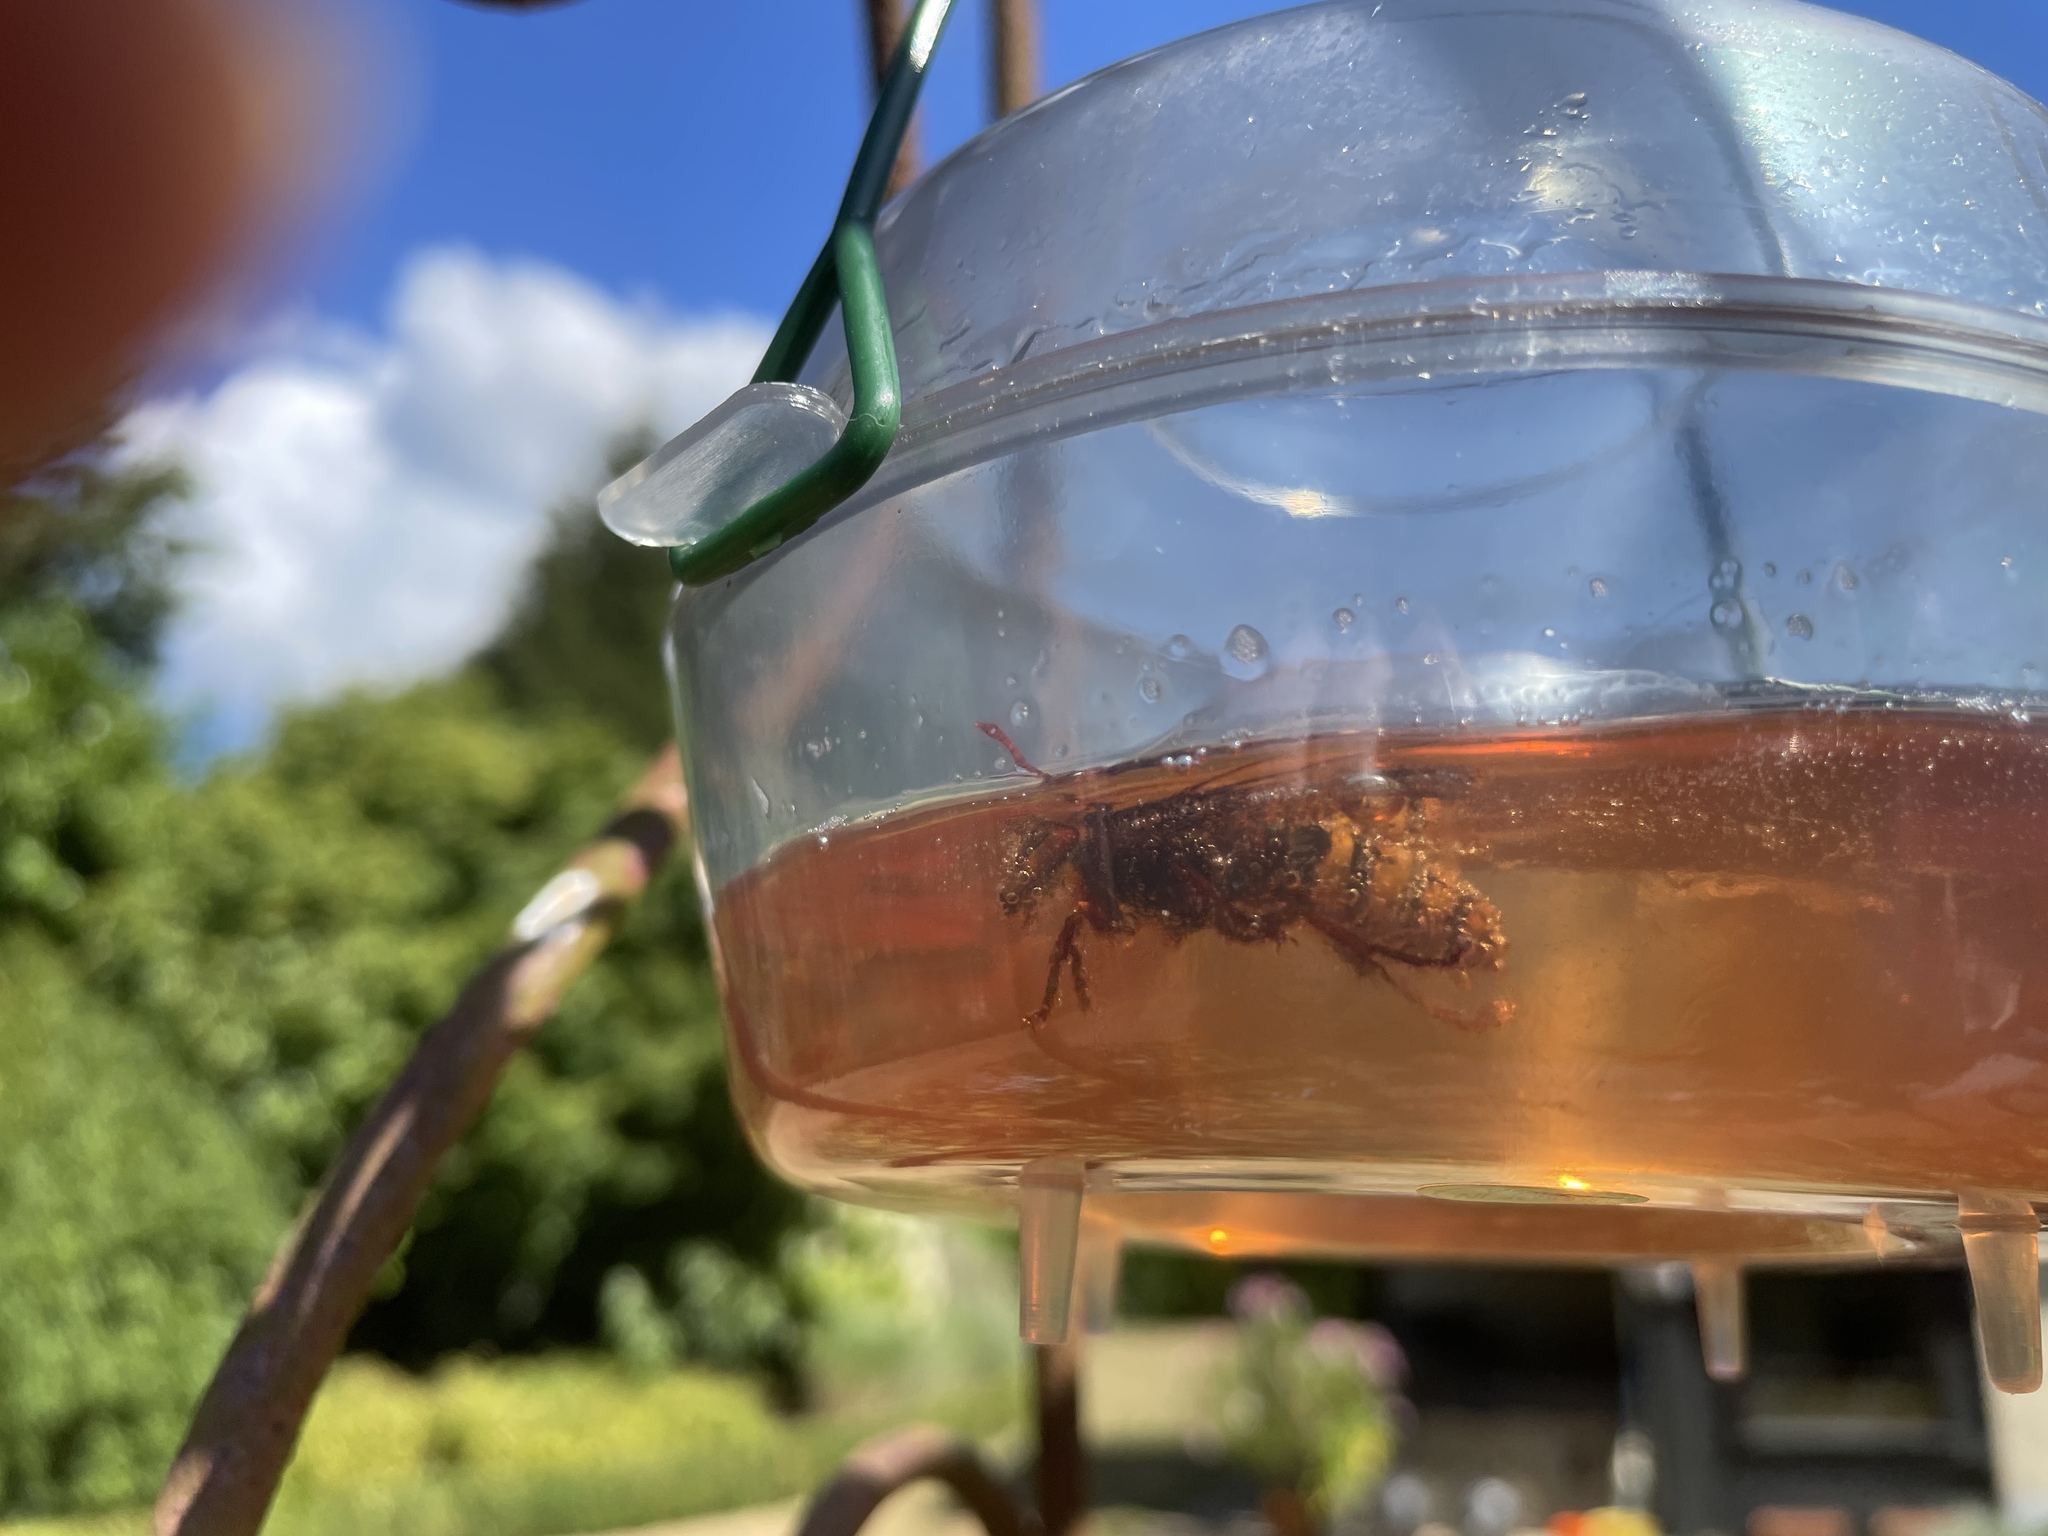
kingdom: Animalia
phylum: Arthropoda
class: Insecta
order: Hymenoptera
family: Vespidae
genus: Vespa
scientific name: Vespa crabro
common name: Hornet
